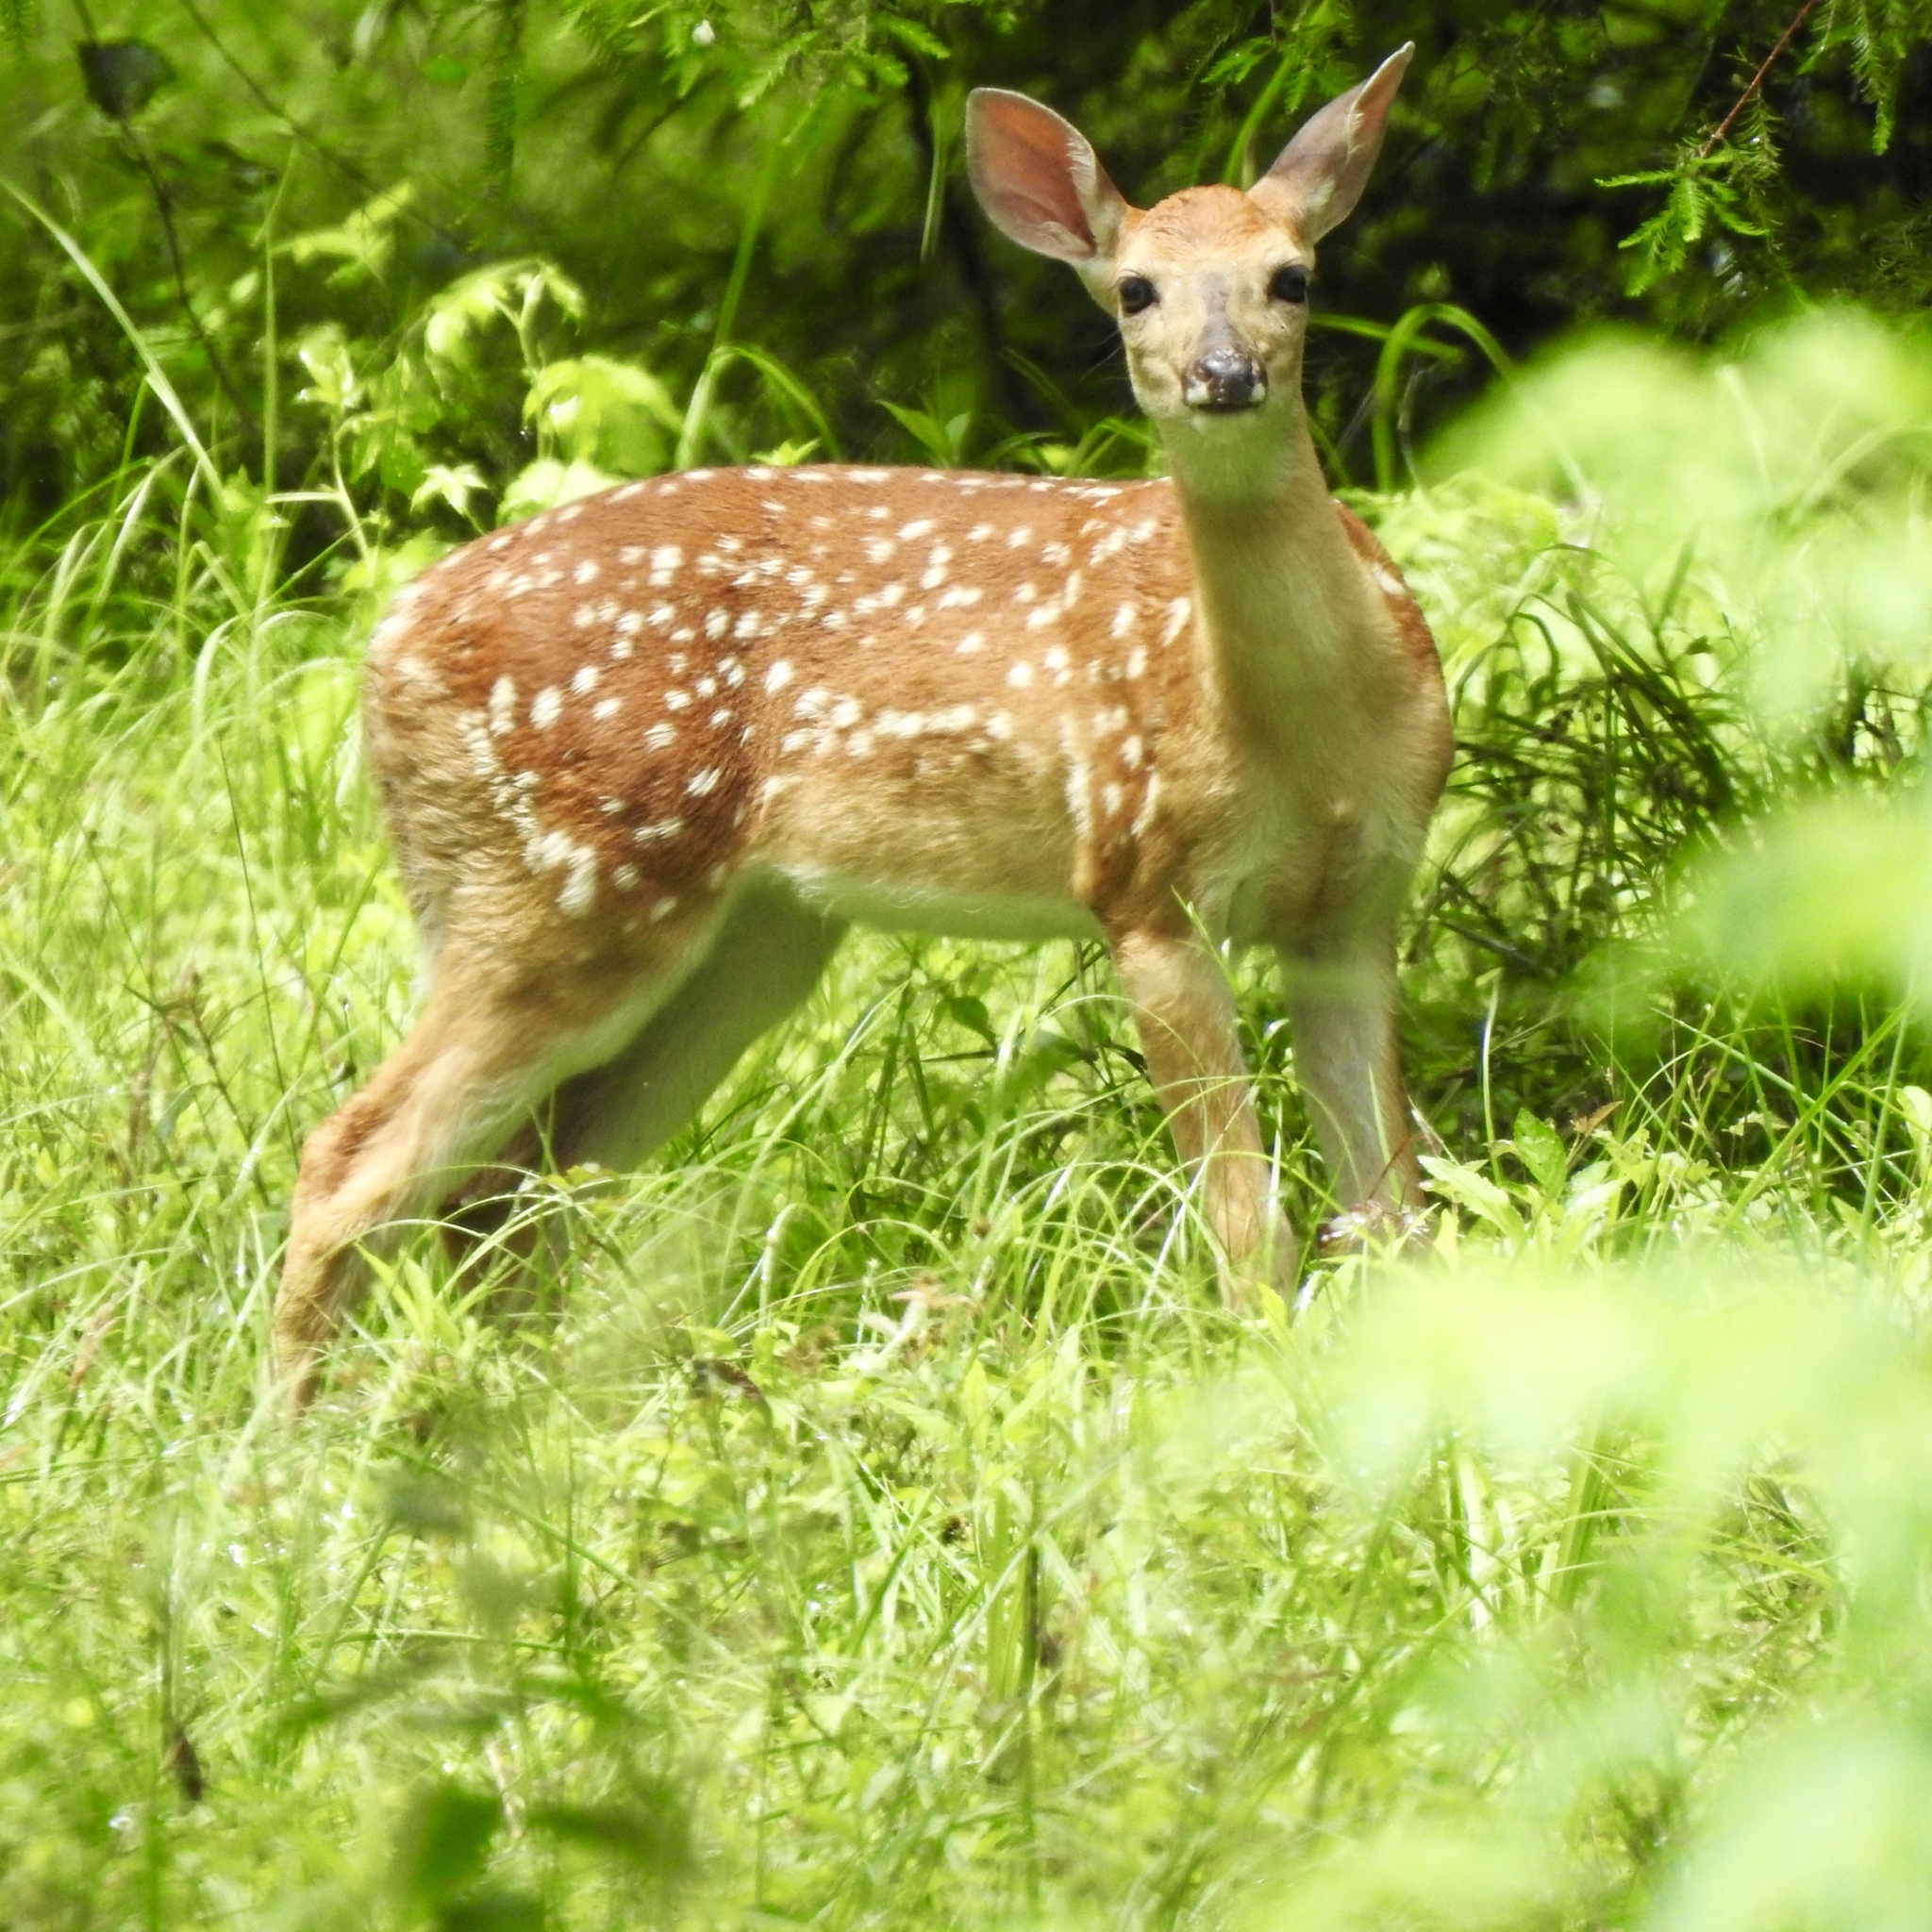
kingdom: Animalia
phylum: Chordata
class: Mammalia
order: Artiodactyla
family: Cervidae
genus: Odocoileus
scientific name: Odocoileus virginianus
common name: White-tailed deer
